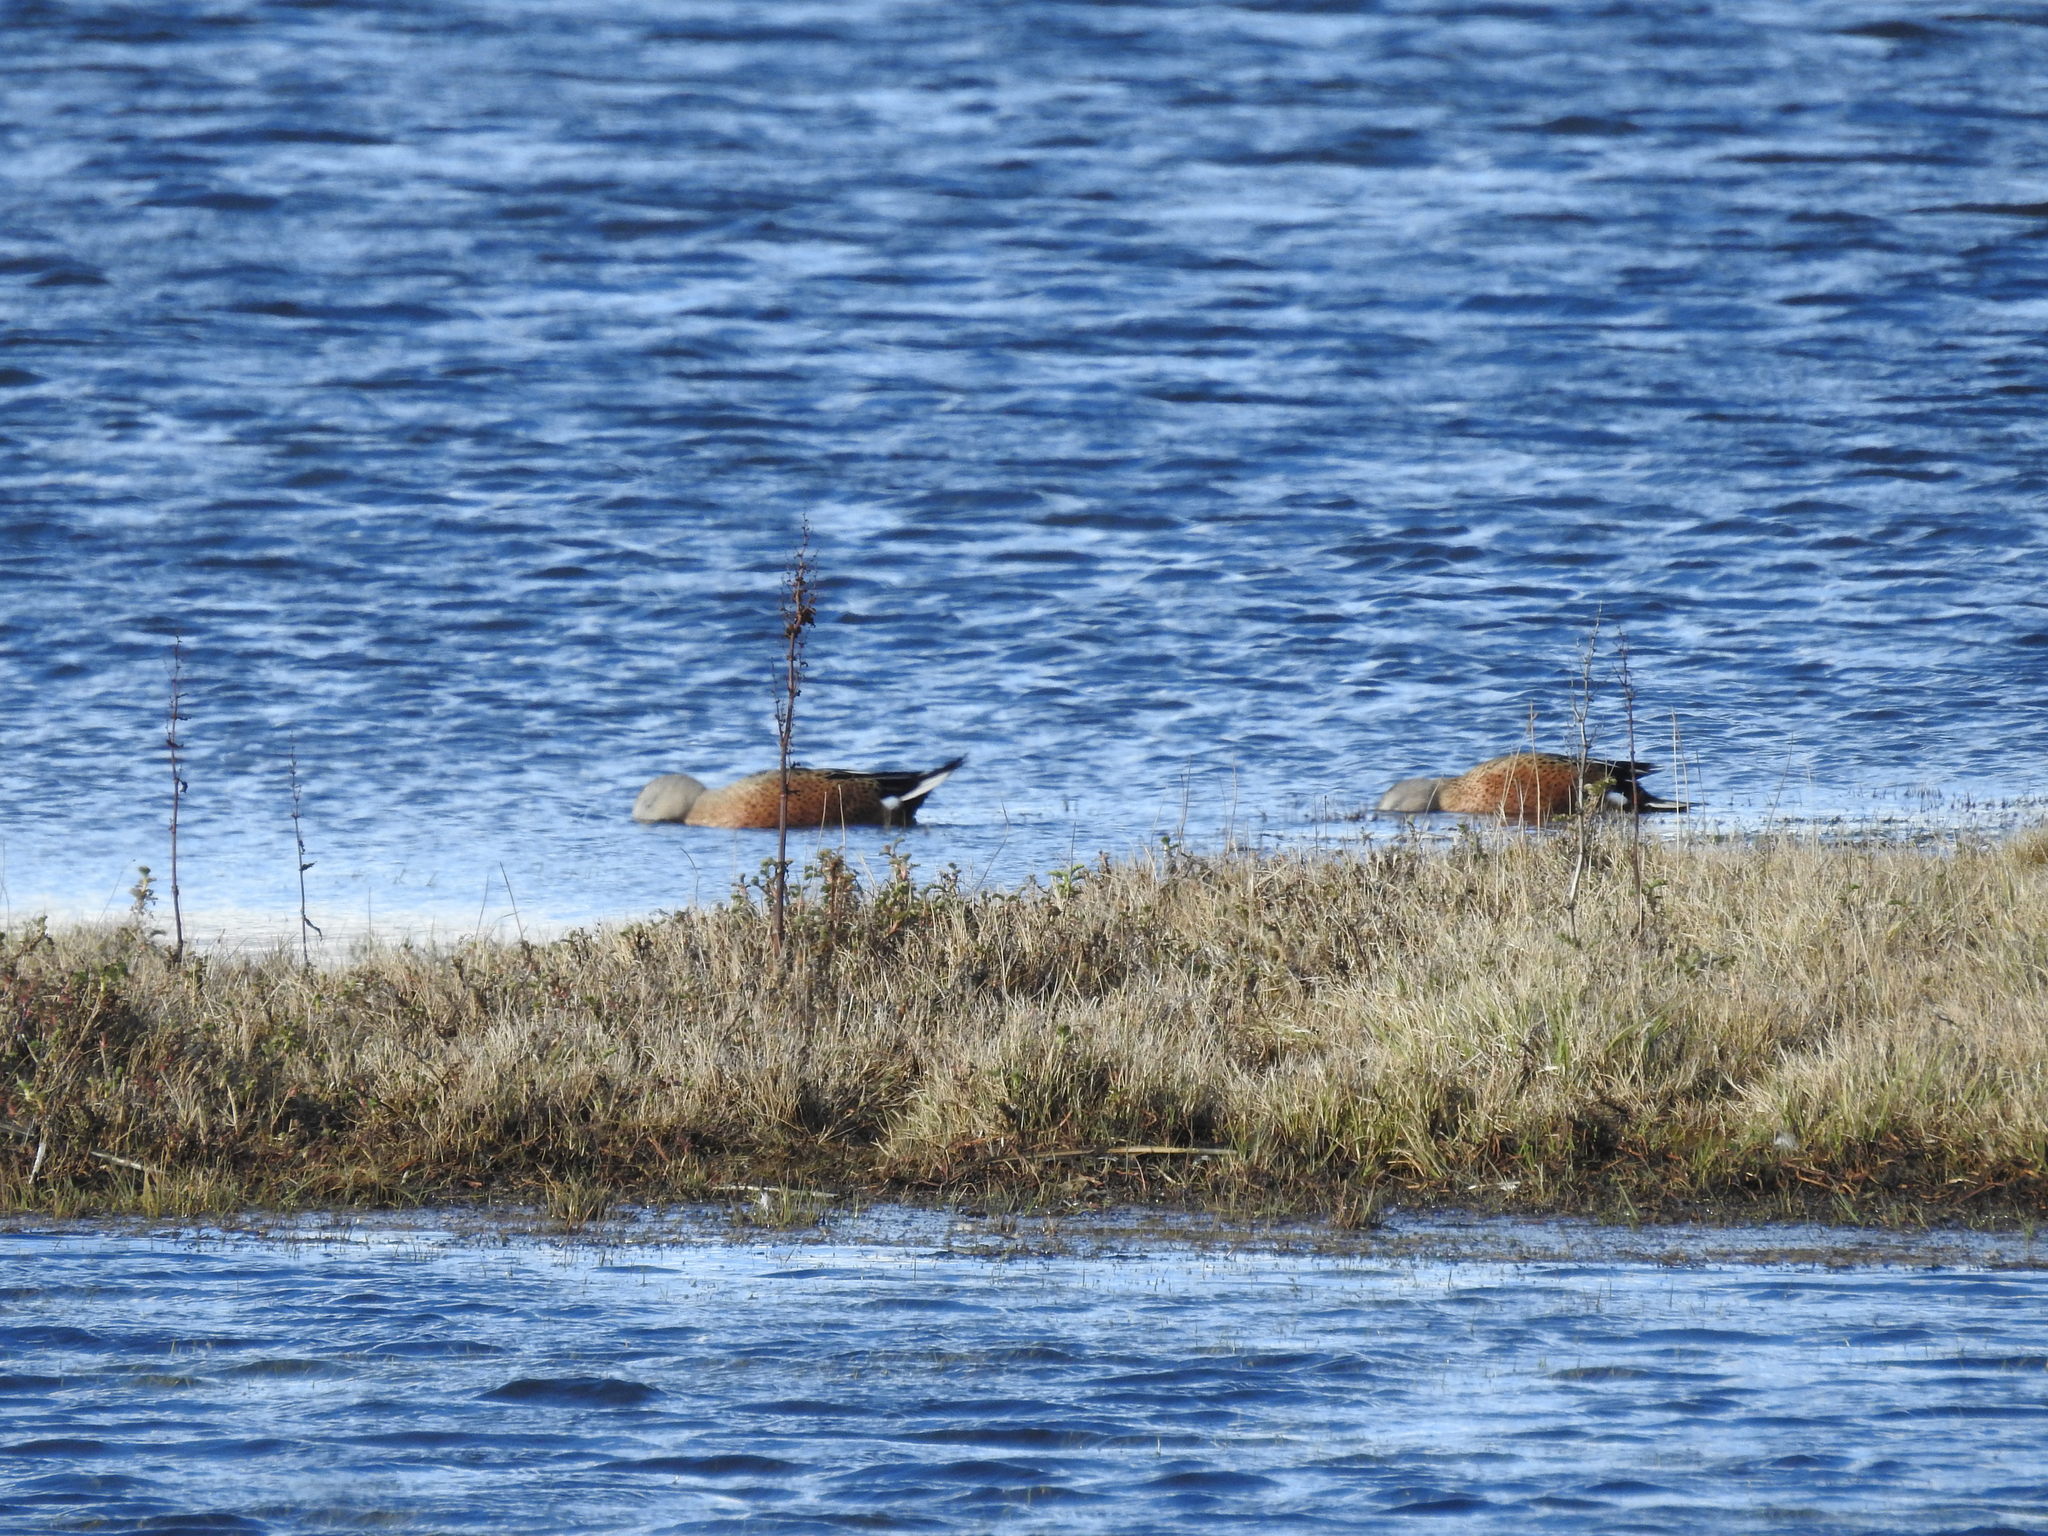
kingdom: Animalia
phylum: Chordata
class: Aves
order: Anseriformes
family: Anatidae
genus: Spatula
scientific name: Spatula platalea
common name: Red shoveler
